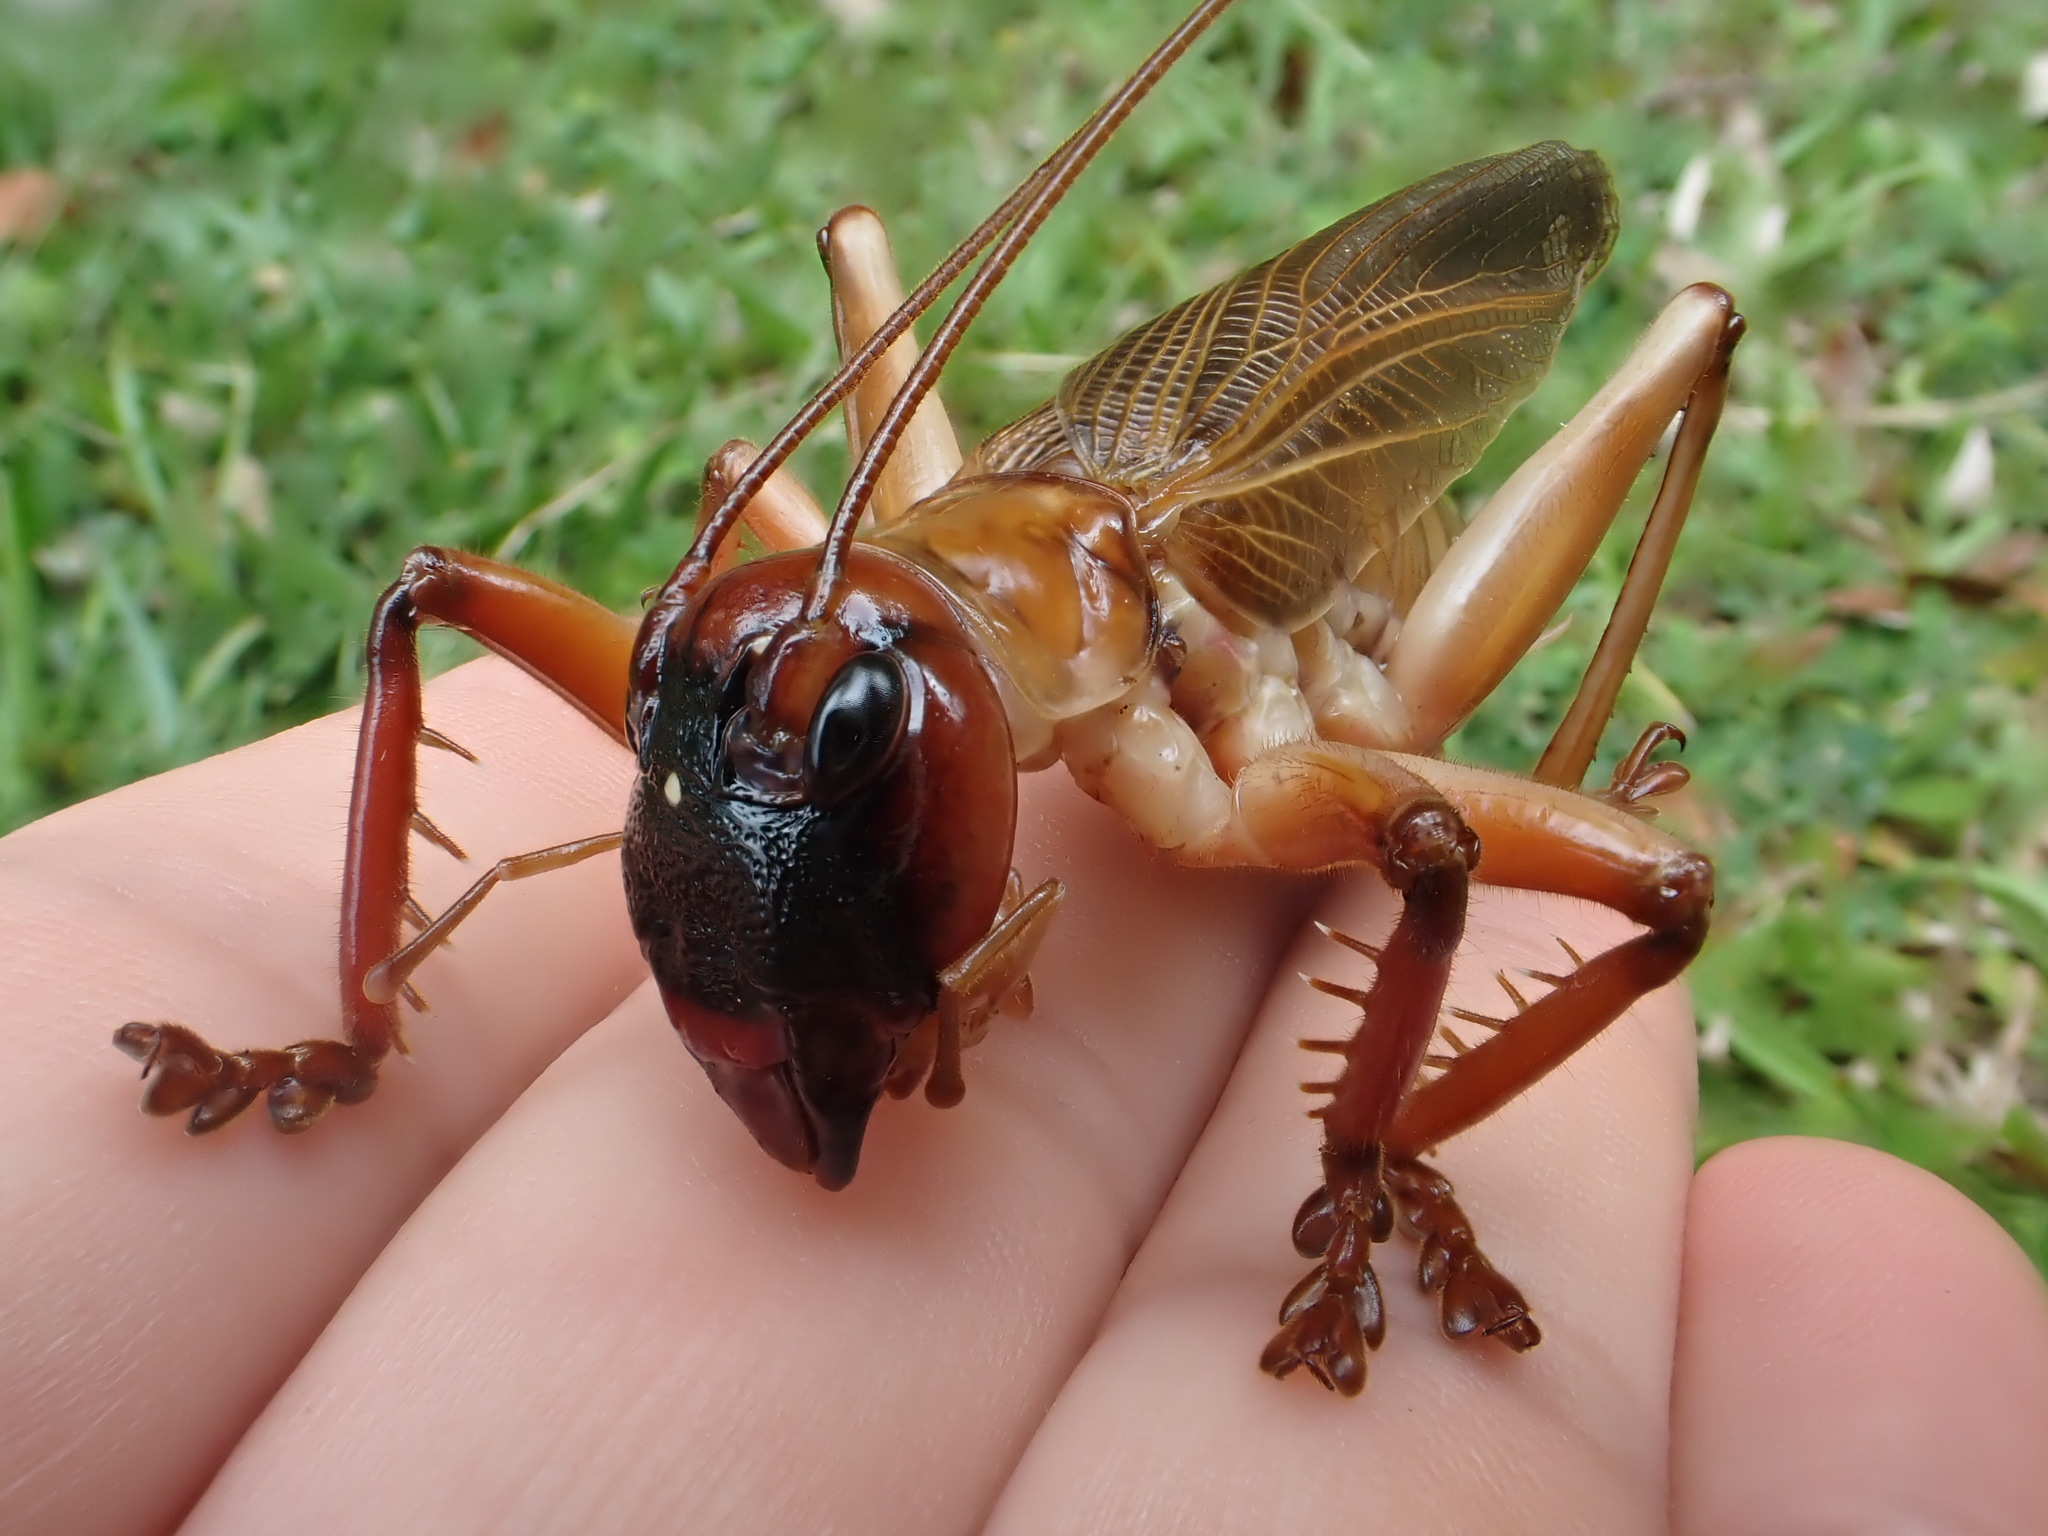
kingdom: Animalia
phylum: Arthropoda
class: Insecta
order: Orthoptera
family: Gryllacrididae
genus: Chauliogryllacris
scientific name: Chauliogryllacris acaropenates
